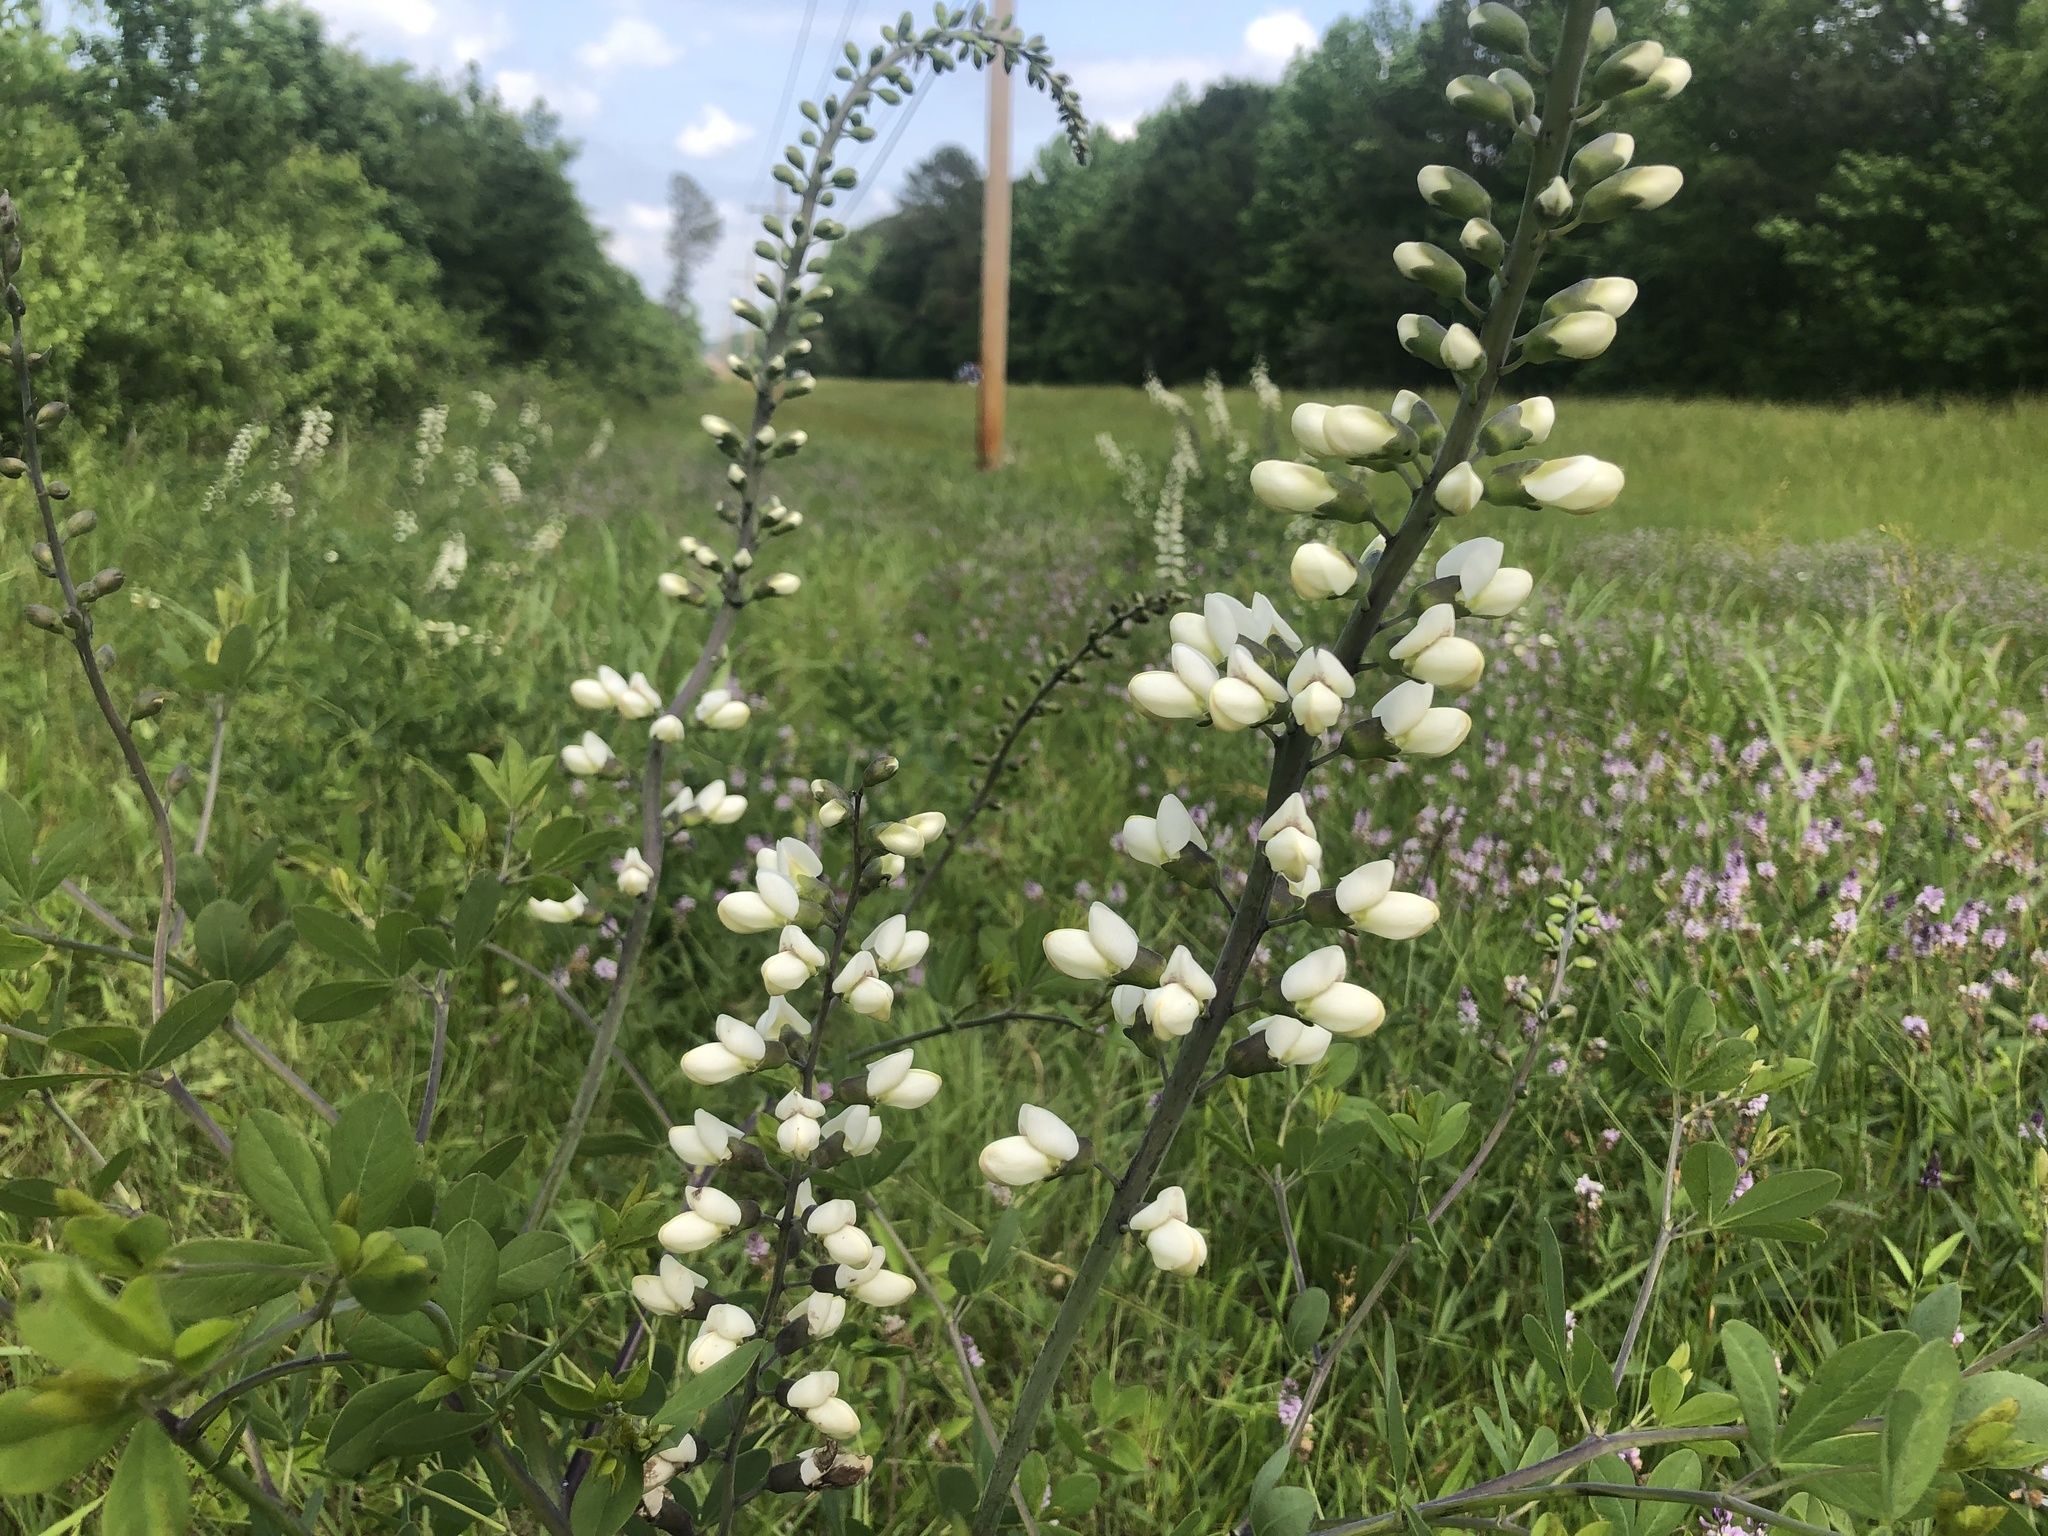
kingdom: Plantae
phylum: Tracheophyta
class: Magnoliopsida
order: Fabales
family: Fabaceae
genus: Baptisia
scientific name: Baptisia alba
